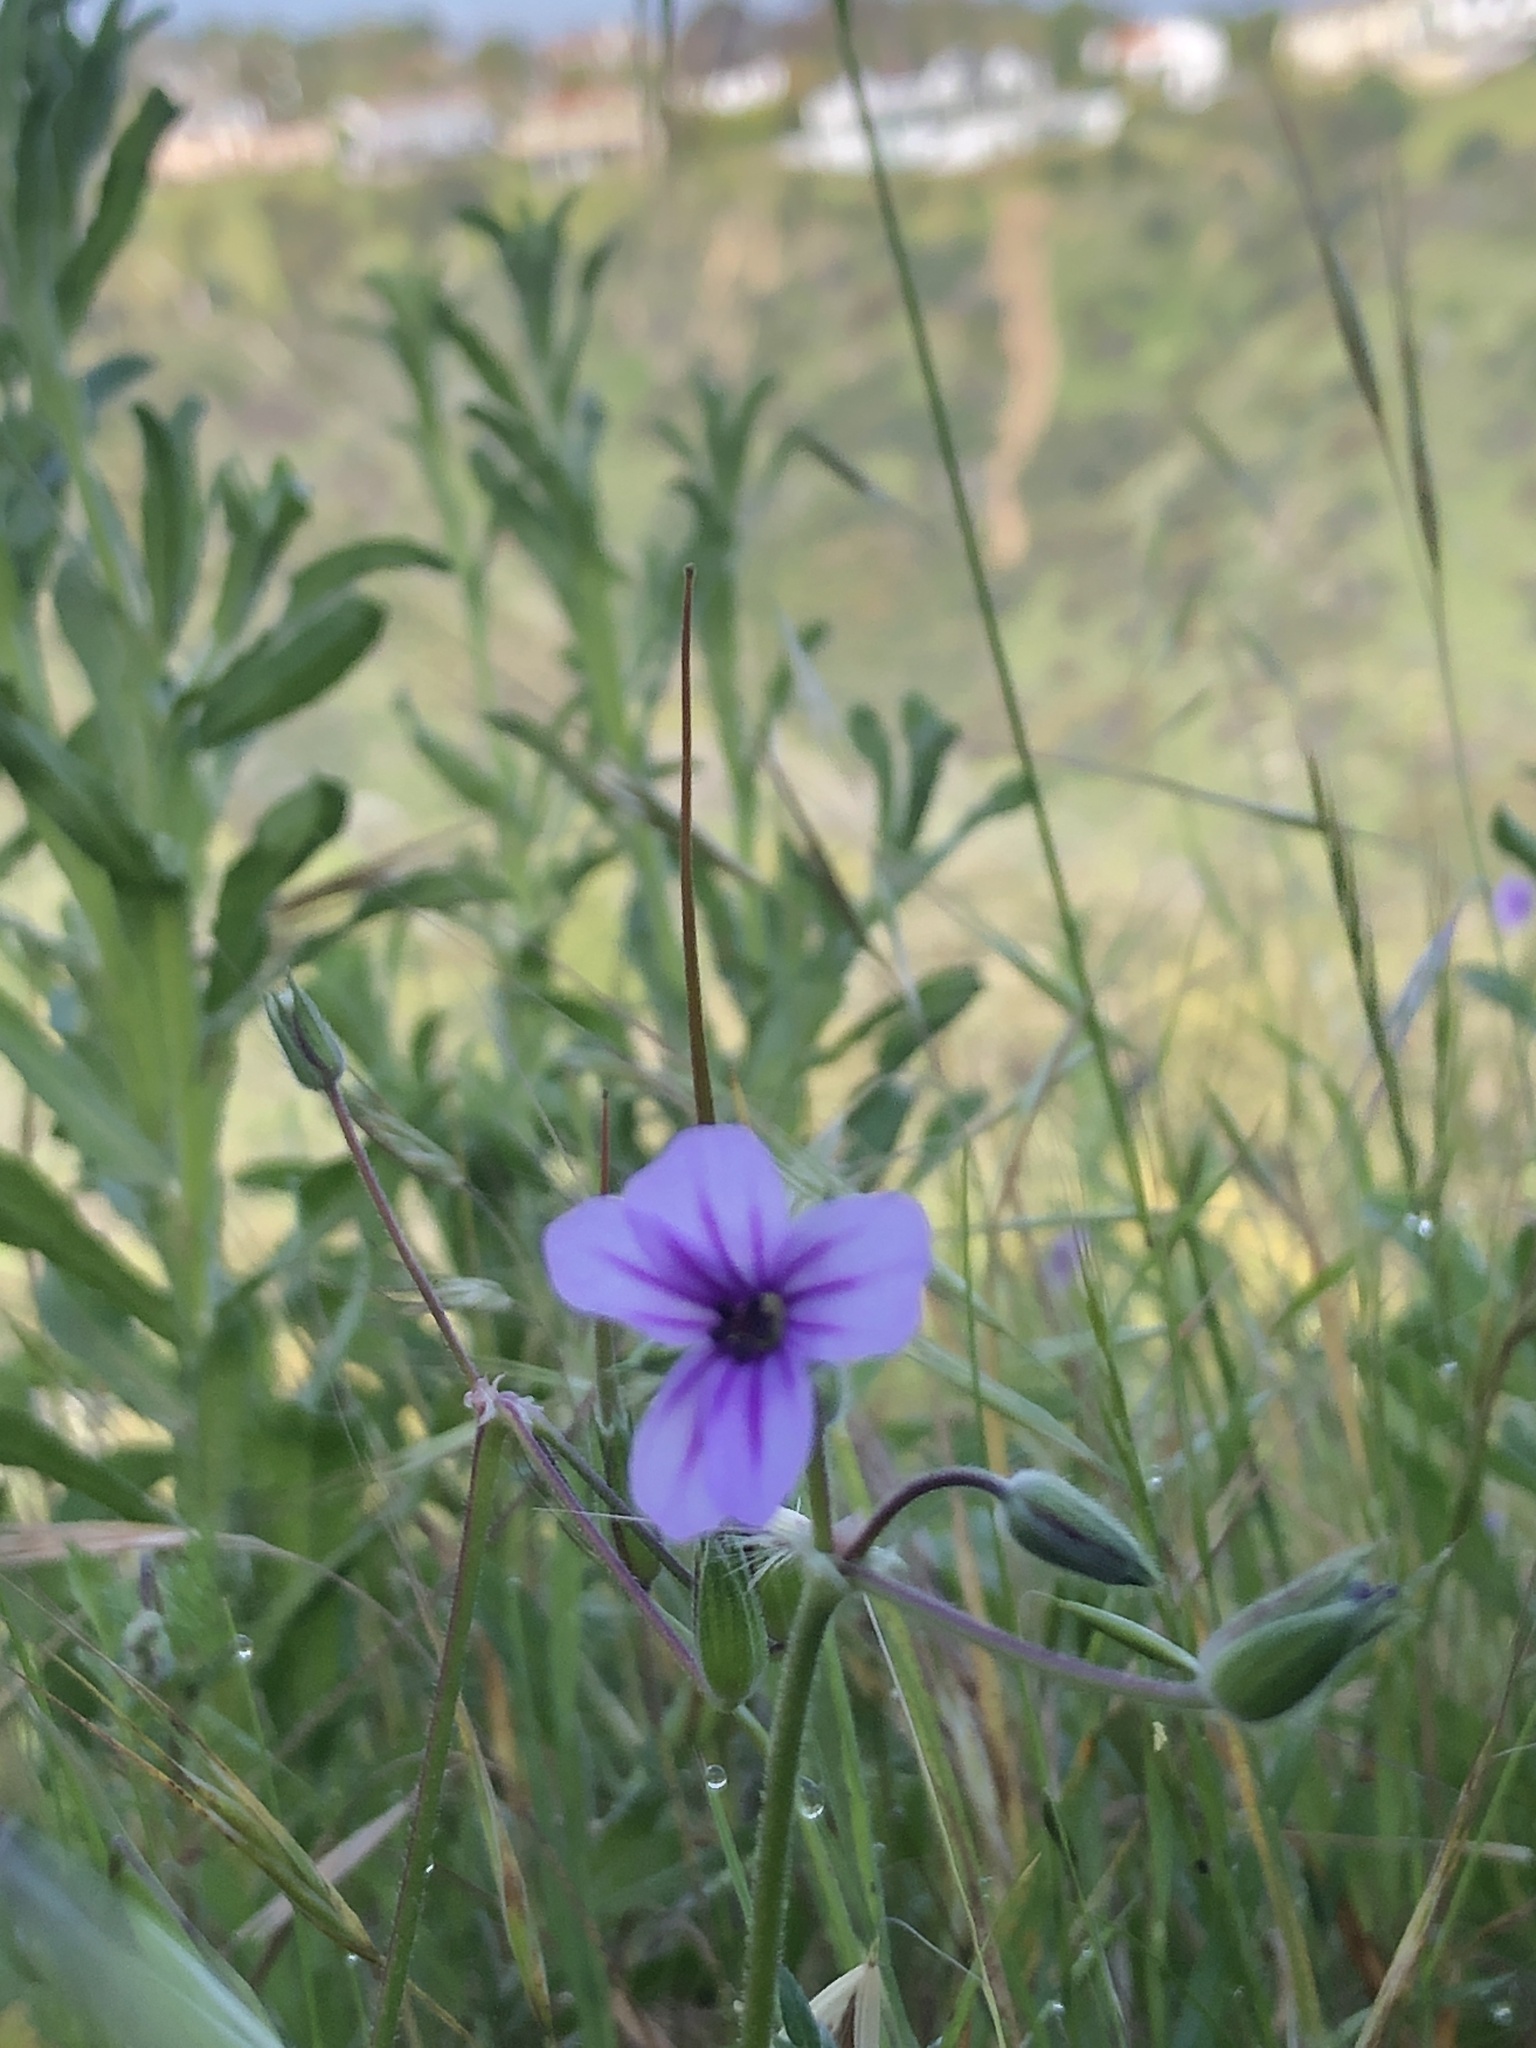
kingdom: Plantae
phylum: Tracheophyta
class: Magnoliopsida
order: Geraniales
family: Geraniaceae
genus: Erodium
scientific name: Erodium botrys
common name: Mediterranean stork's-bill
